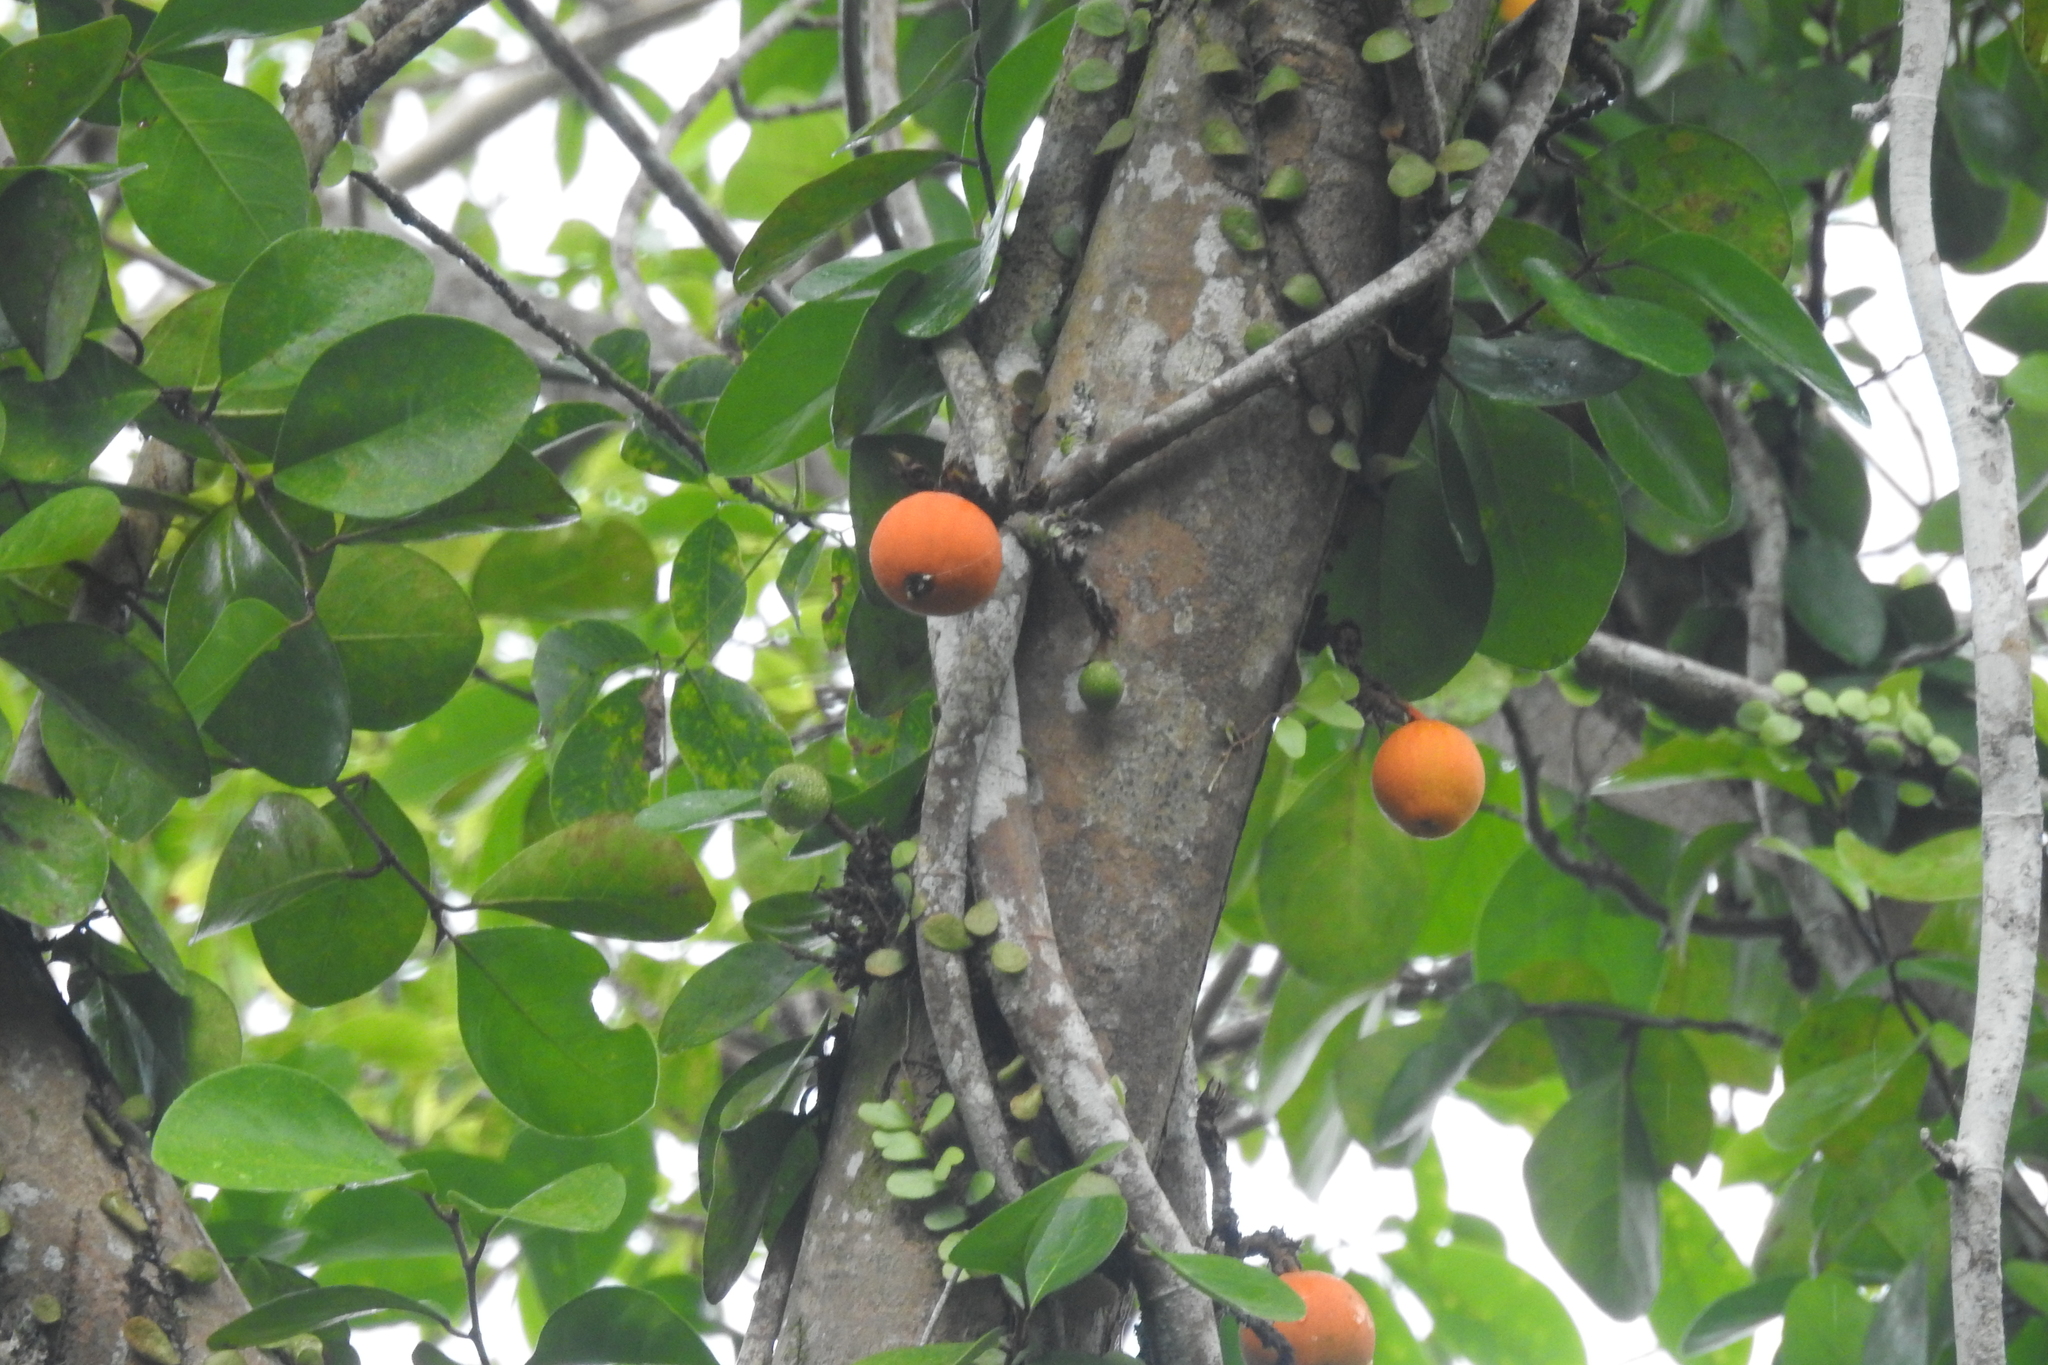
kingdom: Plantae
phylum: Tracheophyta
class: Magnoliopsida
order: Rosales
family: Moraceae
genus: Ficus
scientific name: Ficus punctata
